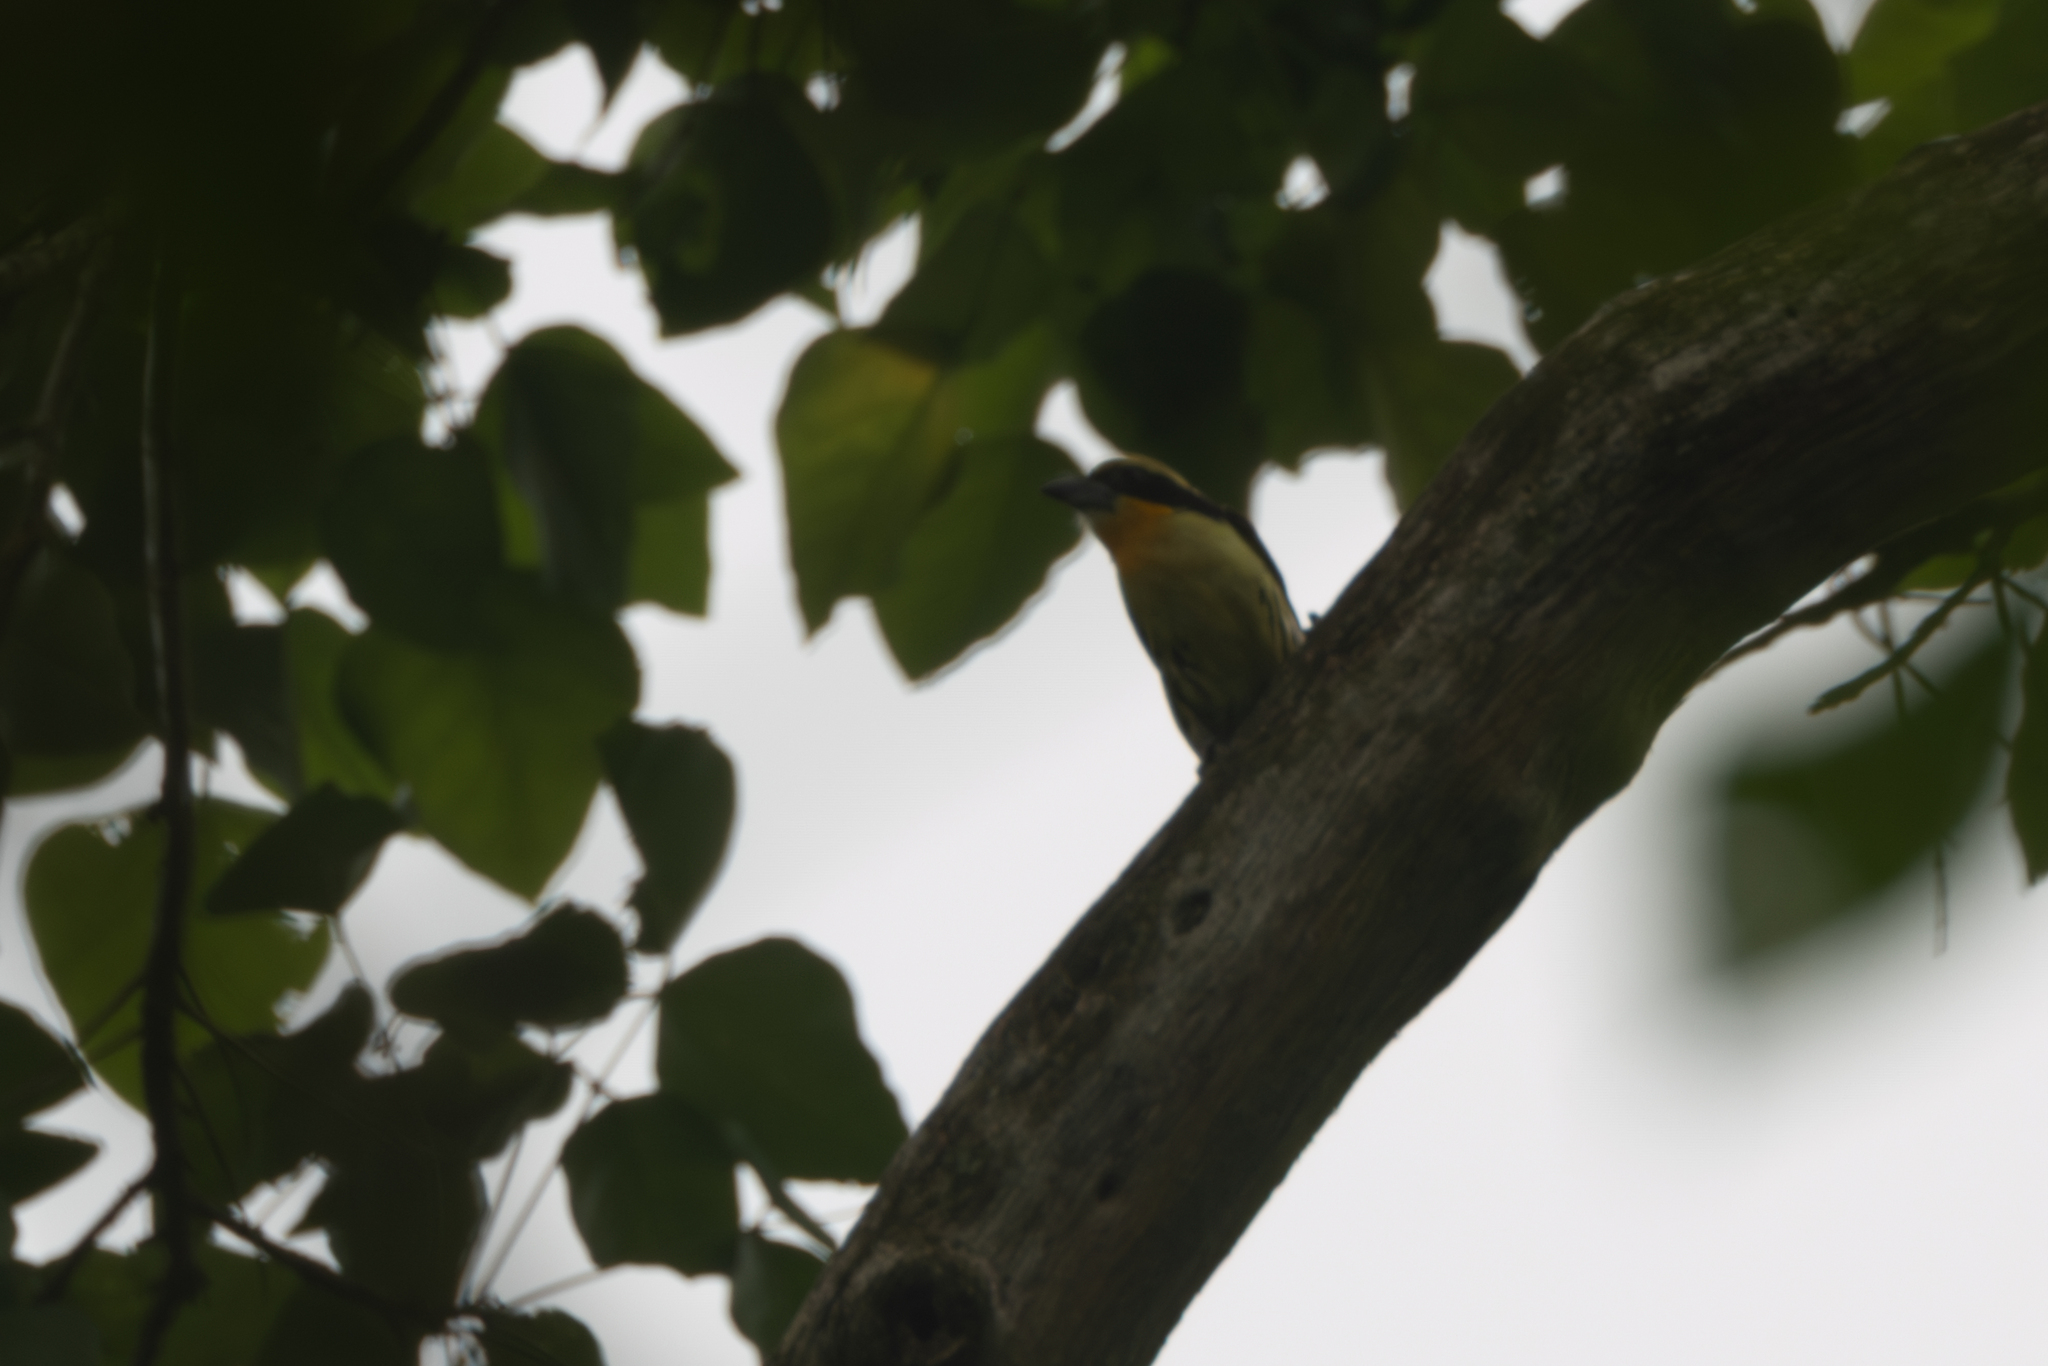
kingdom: Animalia
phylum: Chordata
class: Aves
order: Piciformes
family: Capitonidae
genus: Capito
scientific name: Capito auratus
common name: Gilded barbet
